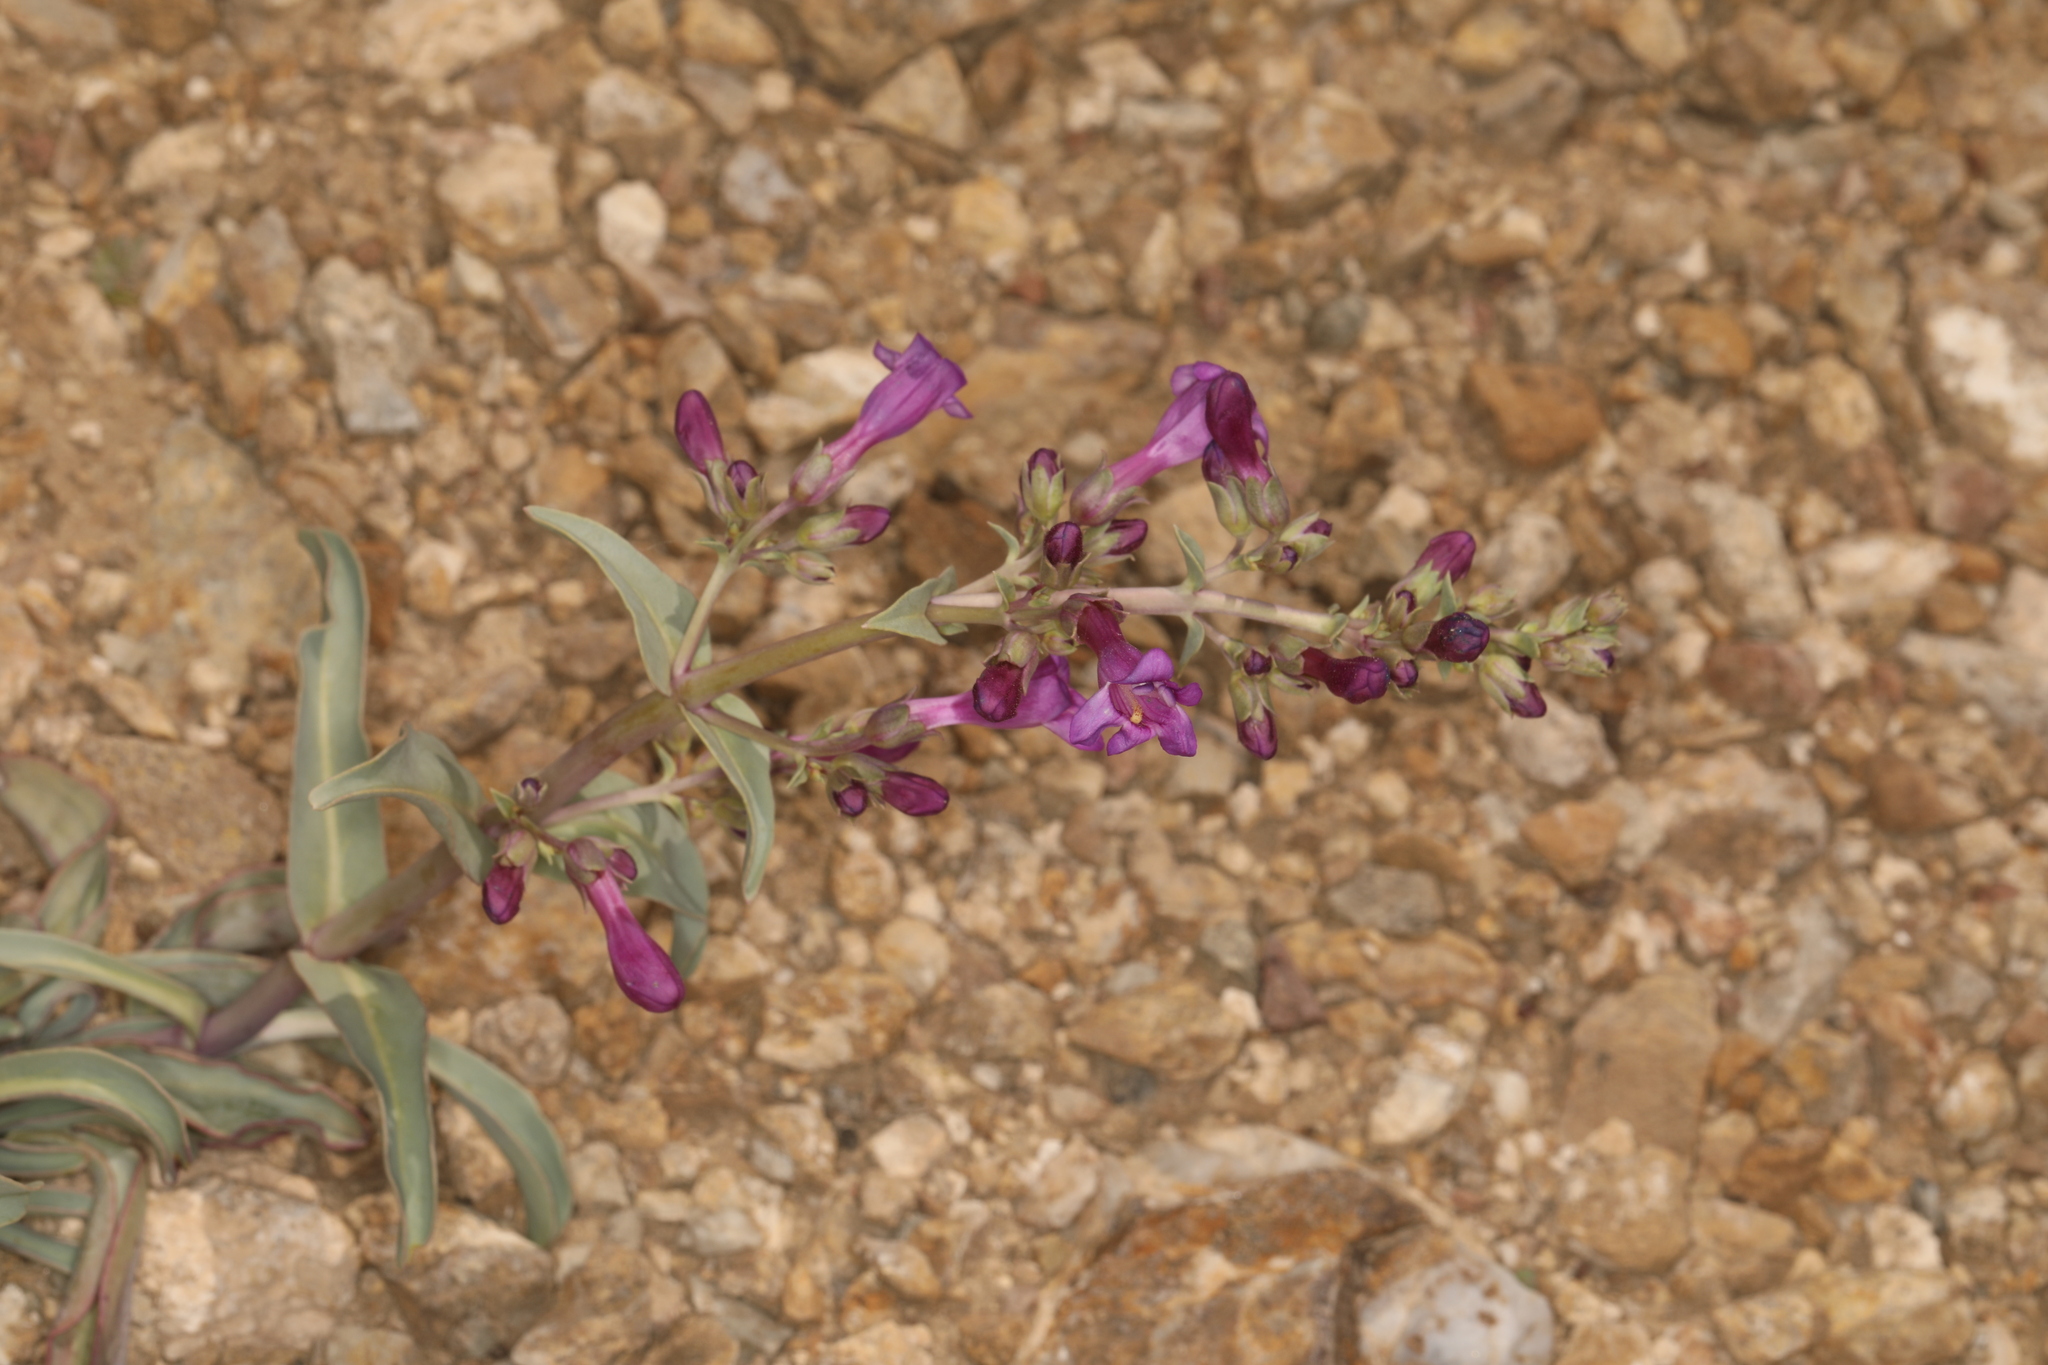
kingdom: Plantae
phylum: Tracheophyta
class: Magnoliopsida
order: Lamiales
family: Plantaginaceae
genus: Penstemon
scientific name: Penstemon patens
